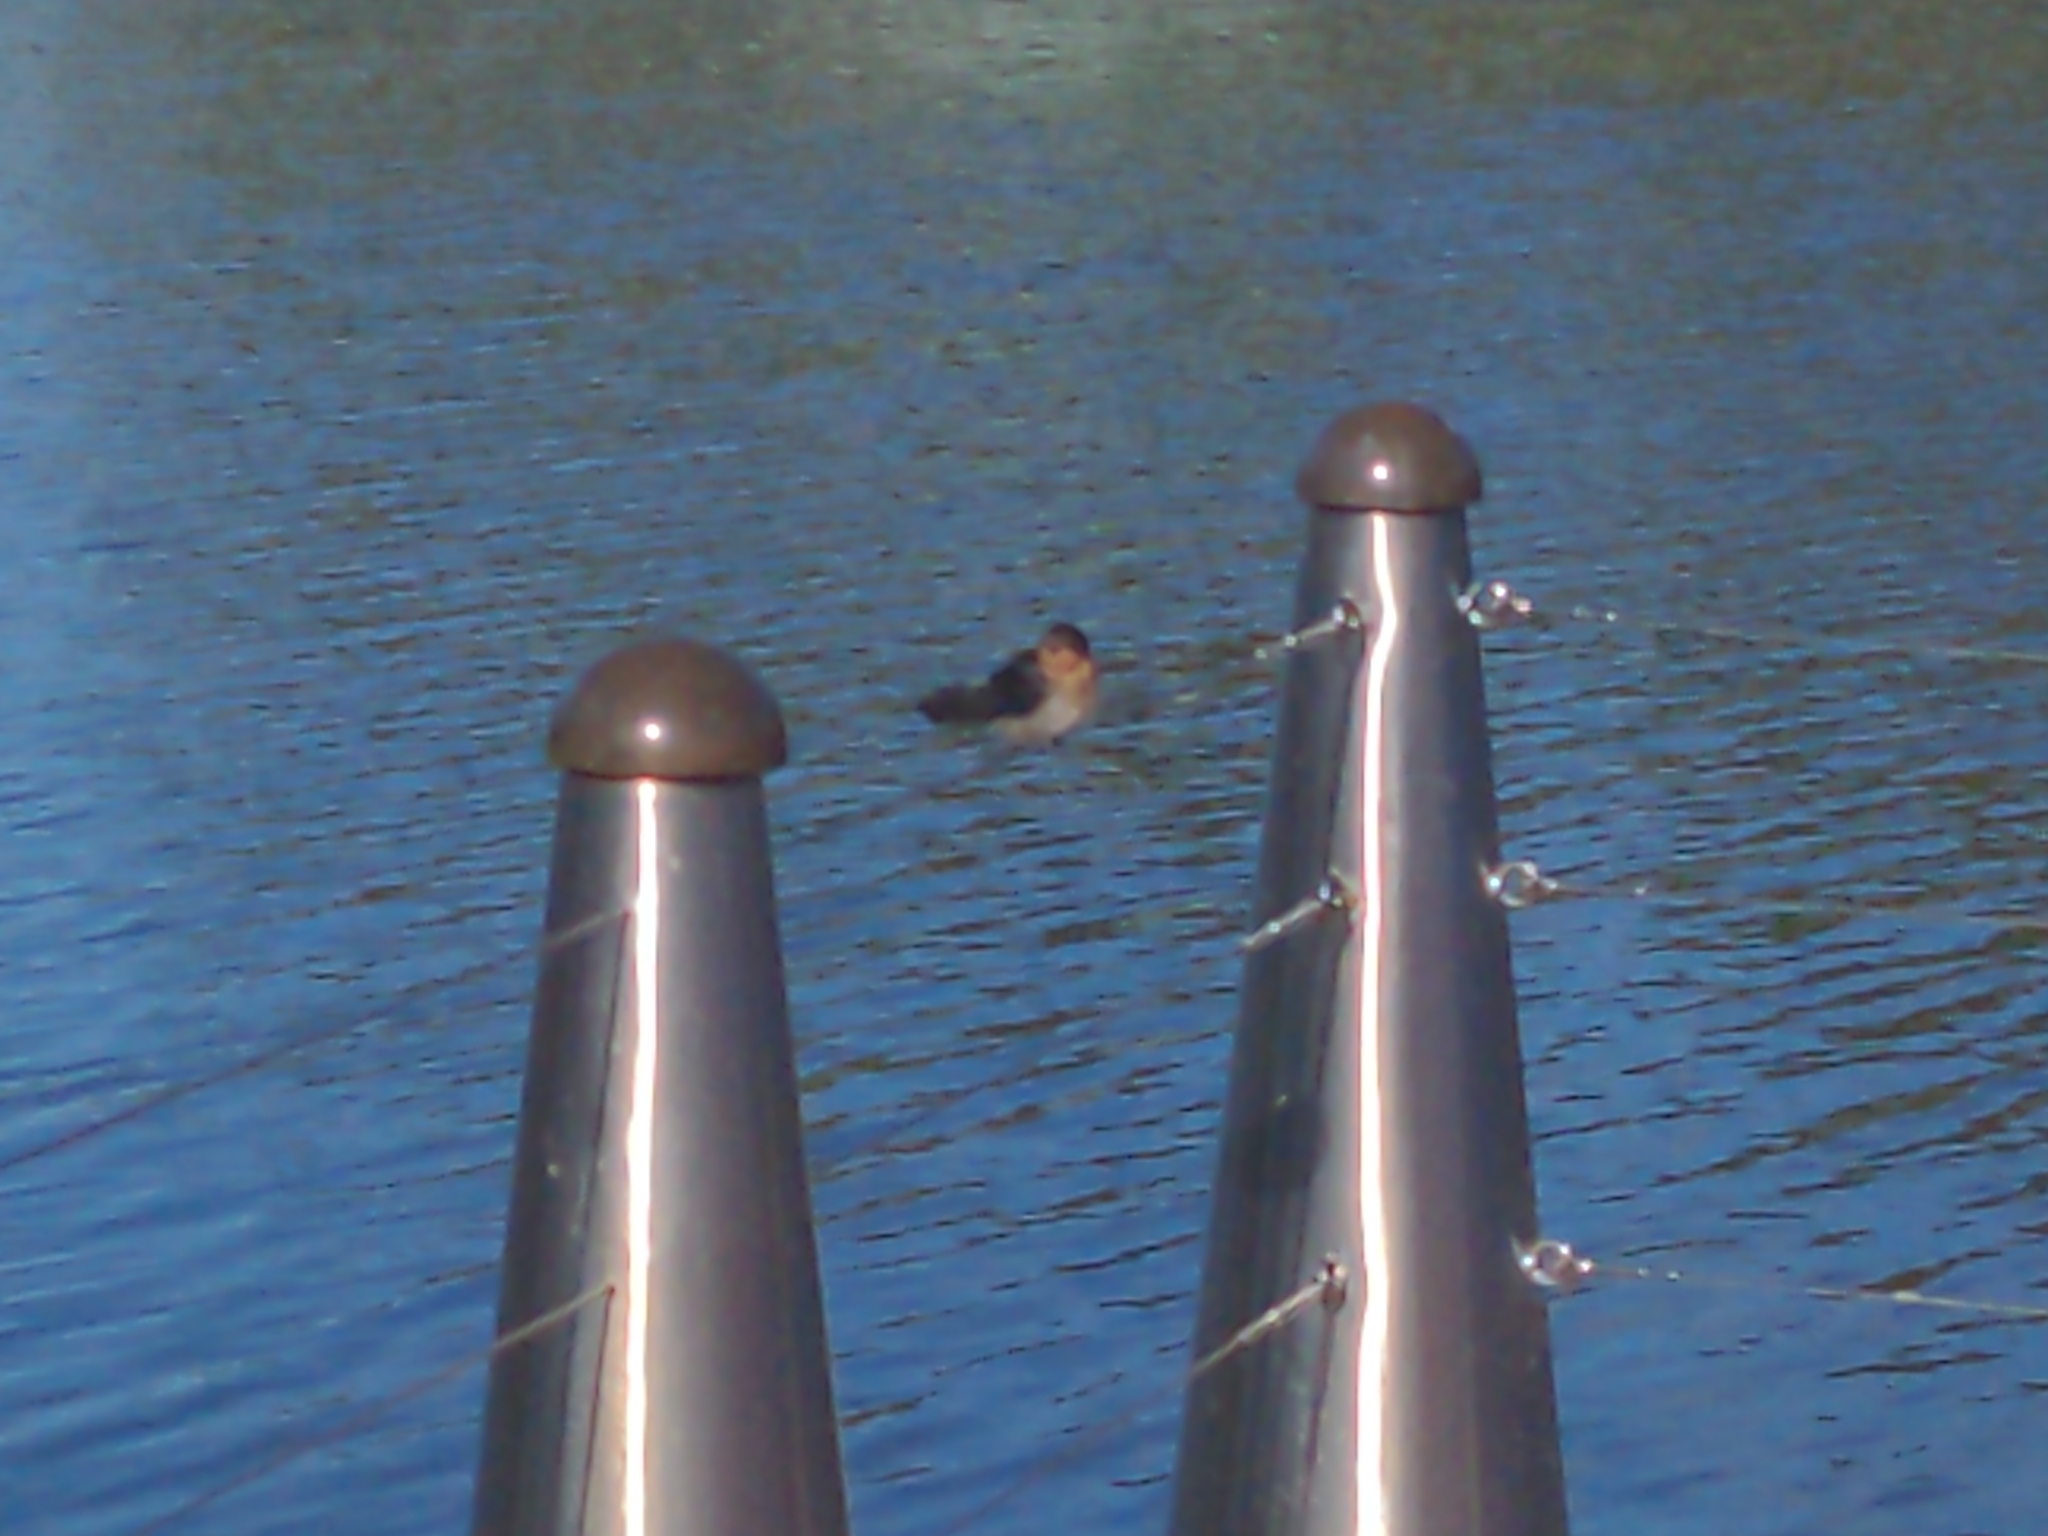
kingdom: Animalia
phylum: Chordata
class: Aves
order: Passeriformes
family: Hirundinidae
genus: Hirundo
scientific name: Hirundo neoxena
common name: Welcome swallow
